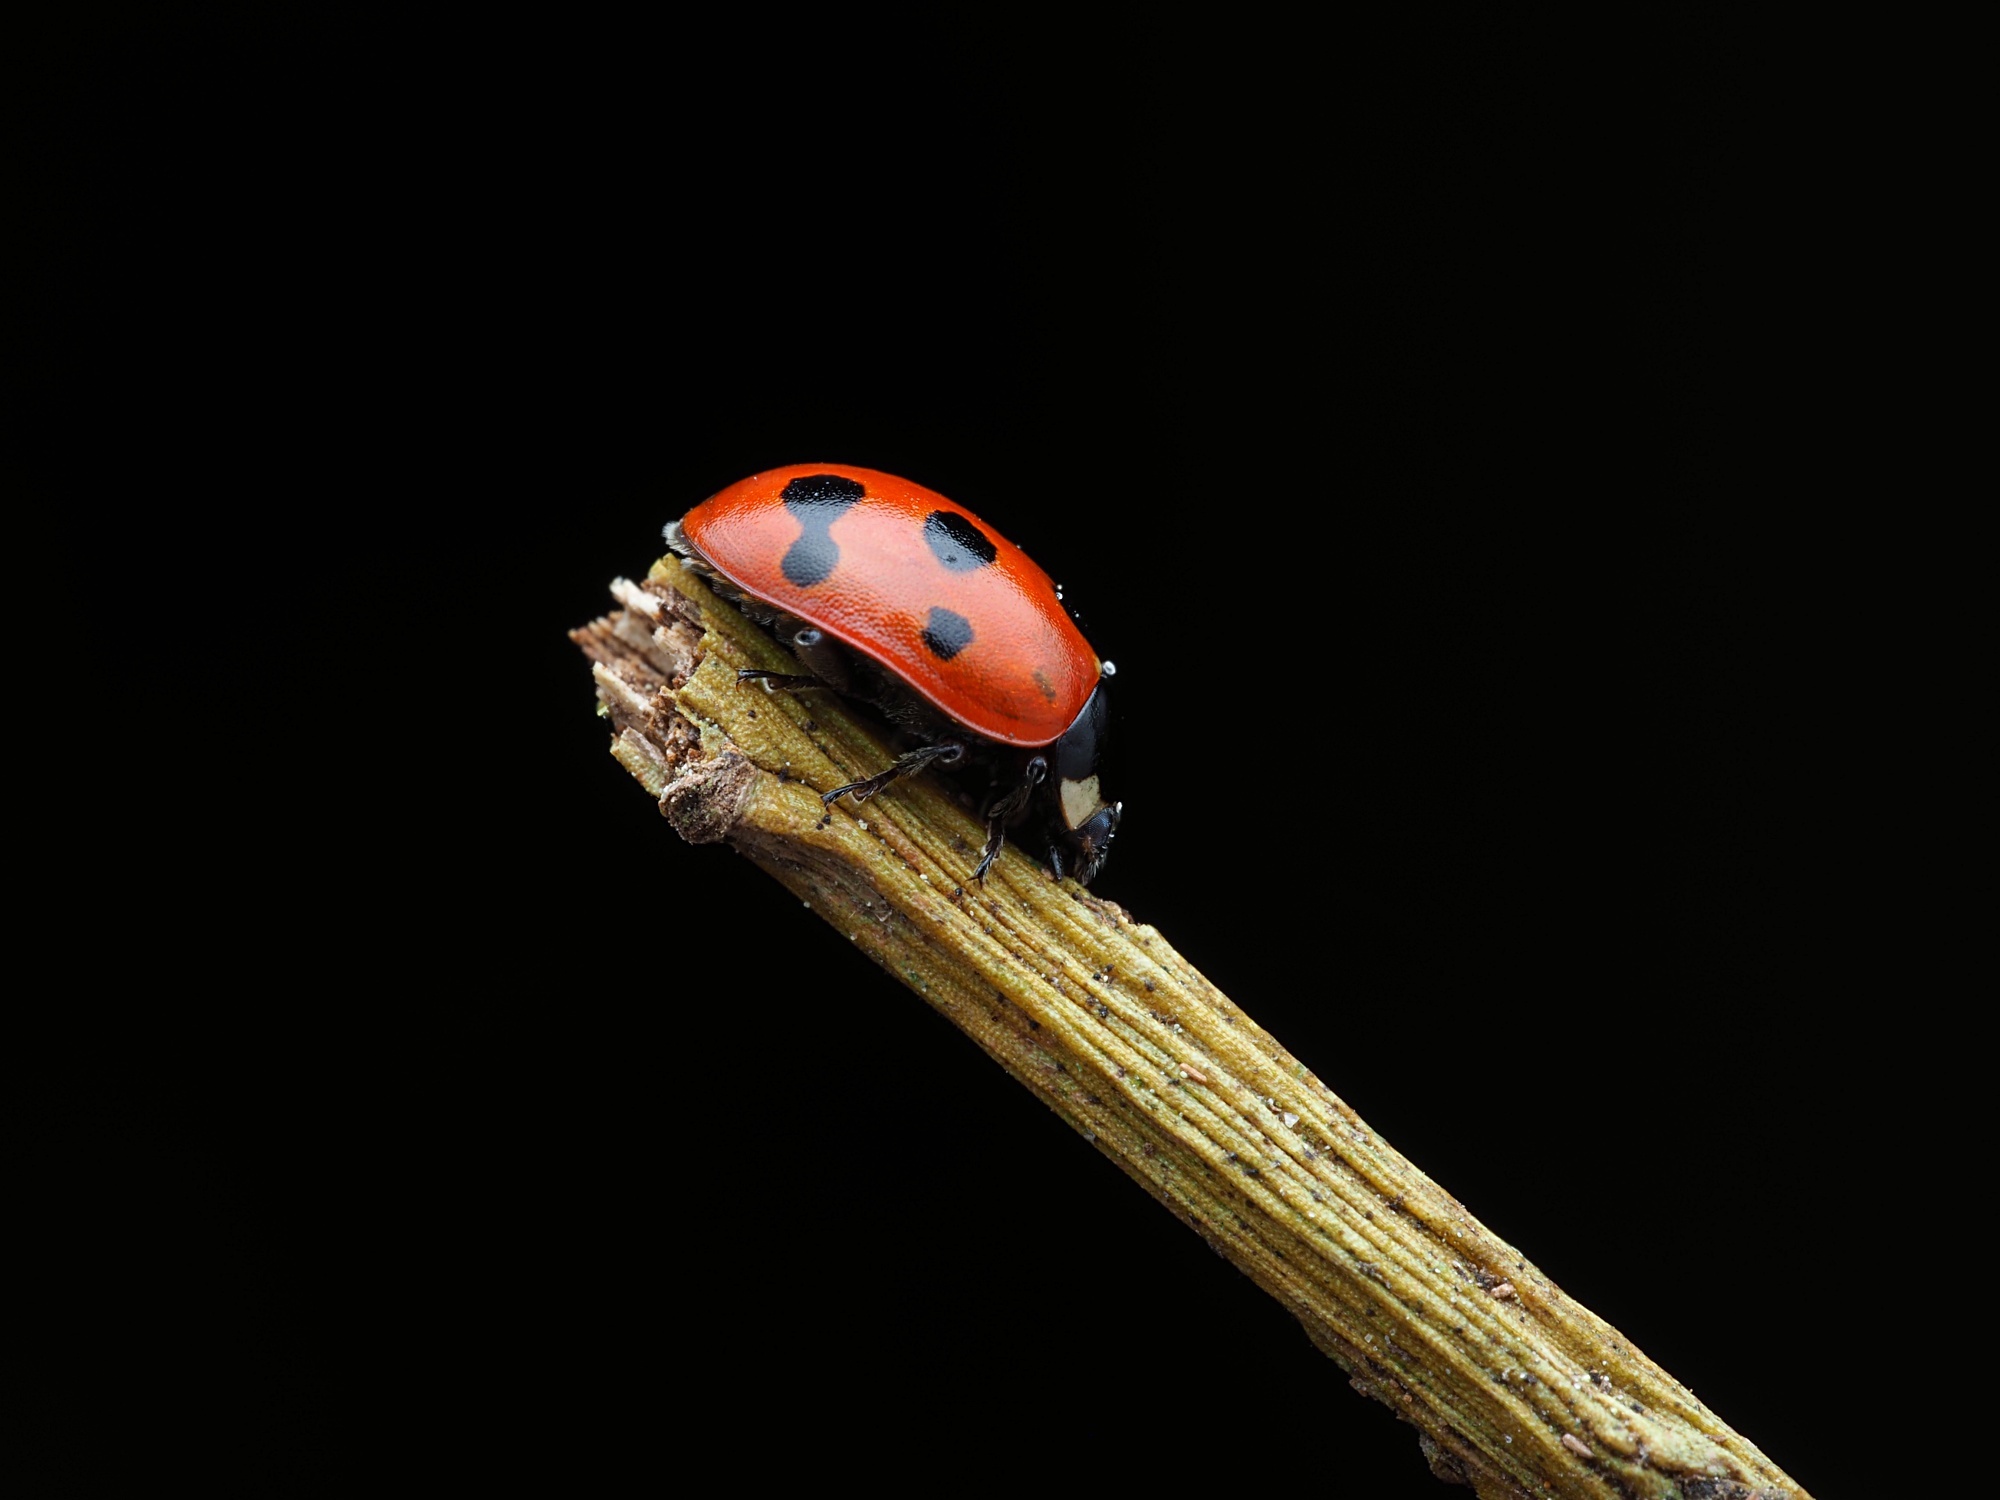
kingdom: Animalia
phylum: Arthropoda
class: Insecta
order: Coleoptera
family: Coccinellidae
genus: Coccinella
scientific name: Coccinella undecimpunctata
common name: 11-spot ladybird
